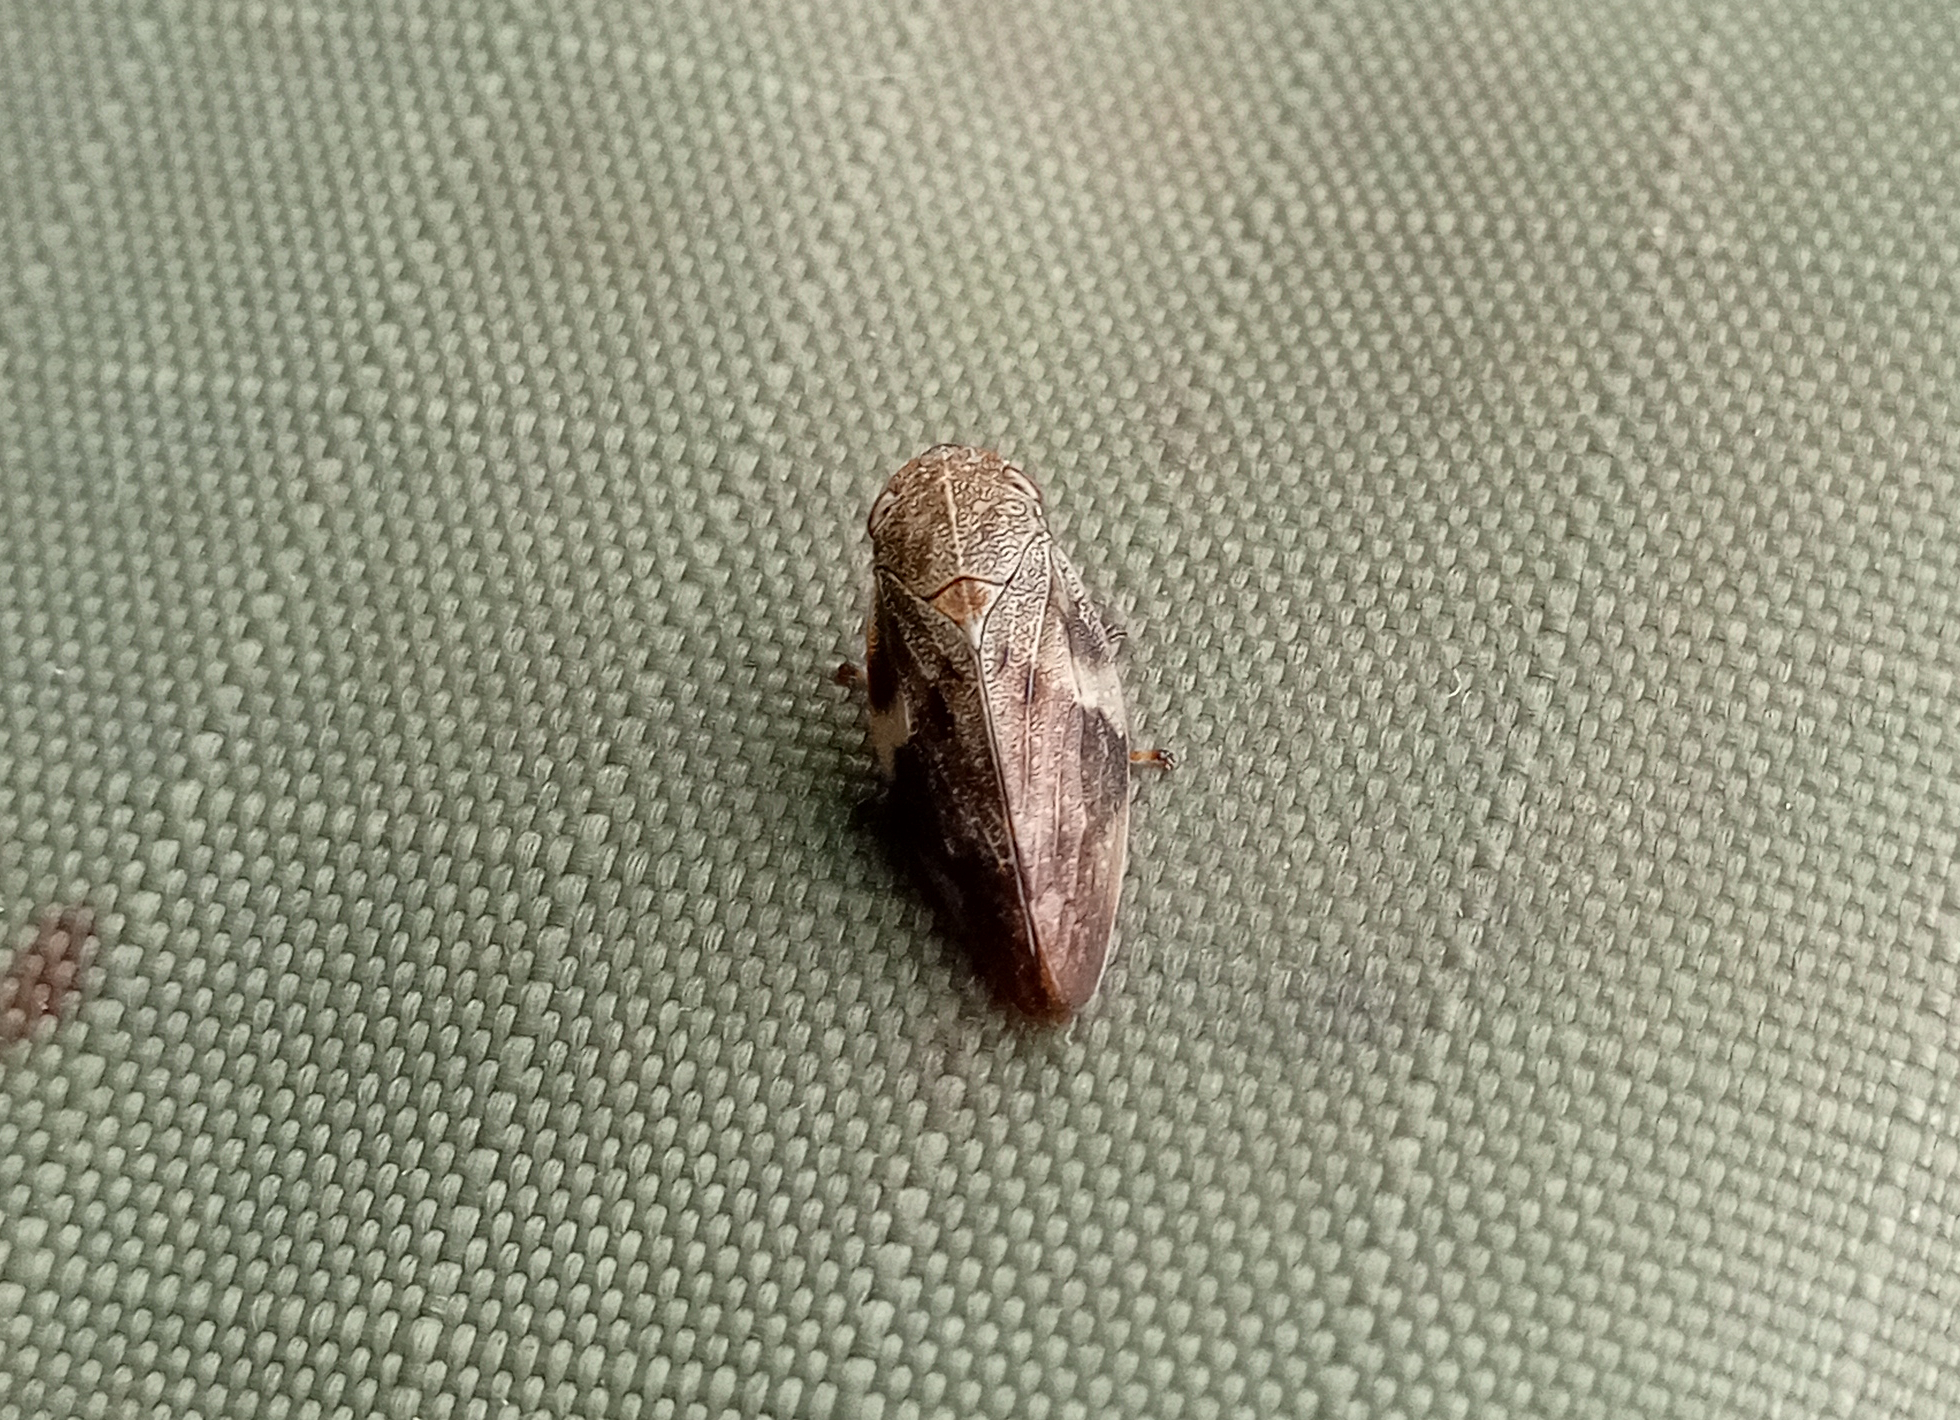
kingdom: Animalia
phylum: Arthropoda
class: Insecta
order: Hemiptera
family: Aphrophoridae
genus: Aphrophora
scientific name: Aphrophora alni
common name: European alder spittlebug
